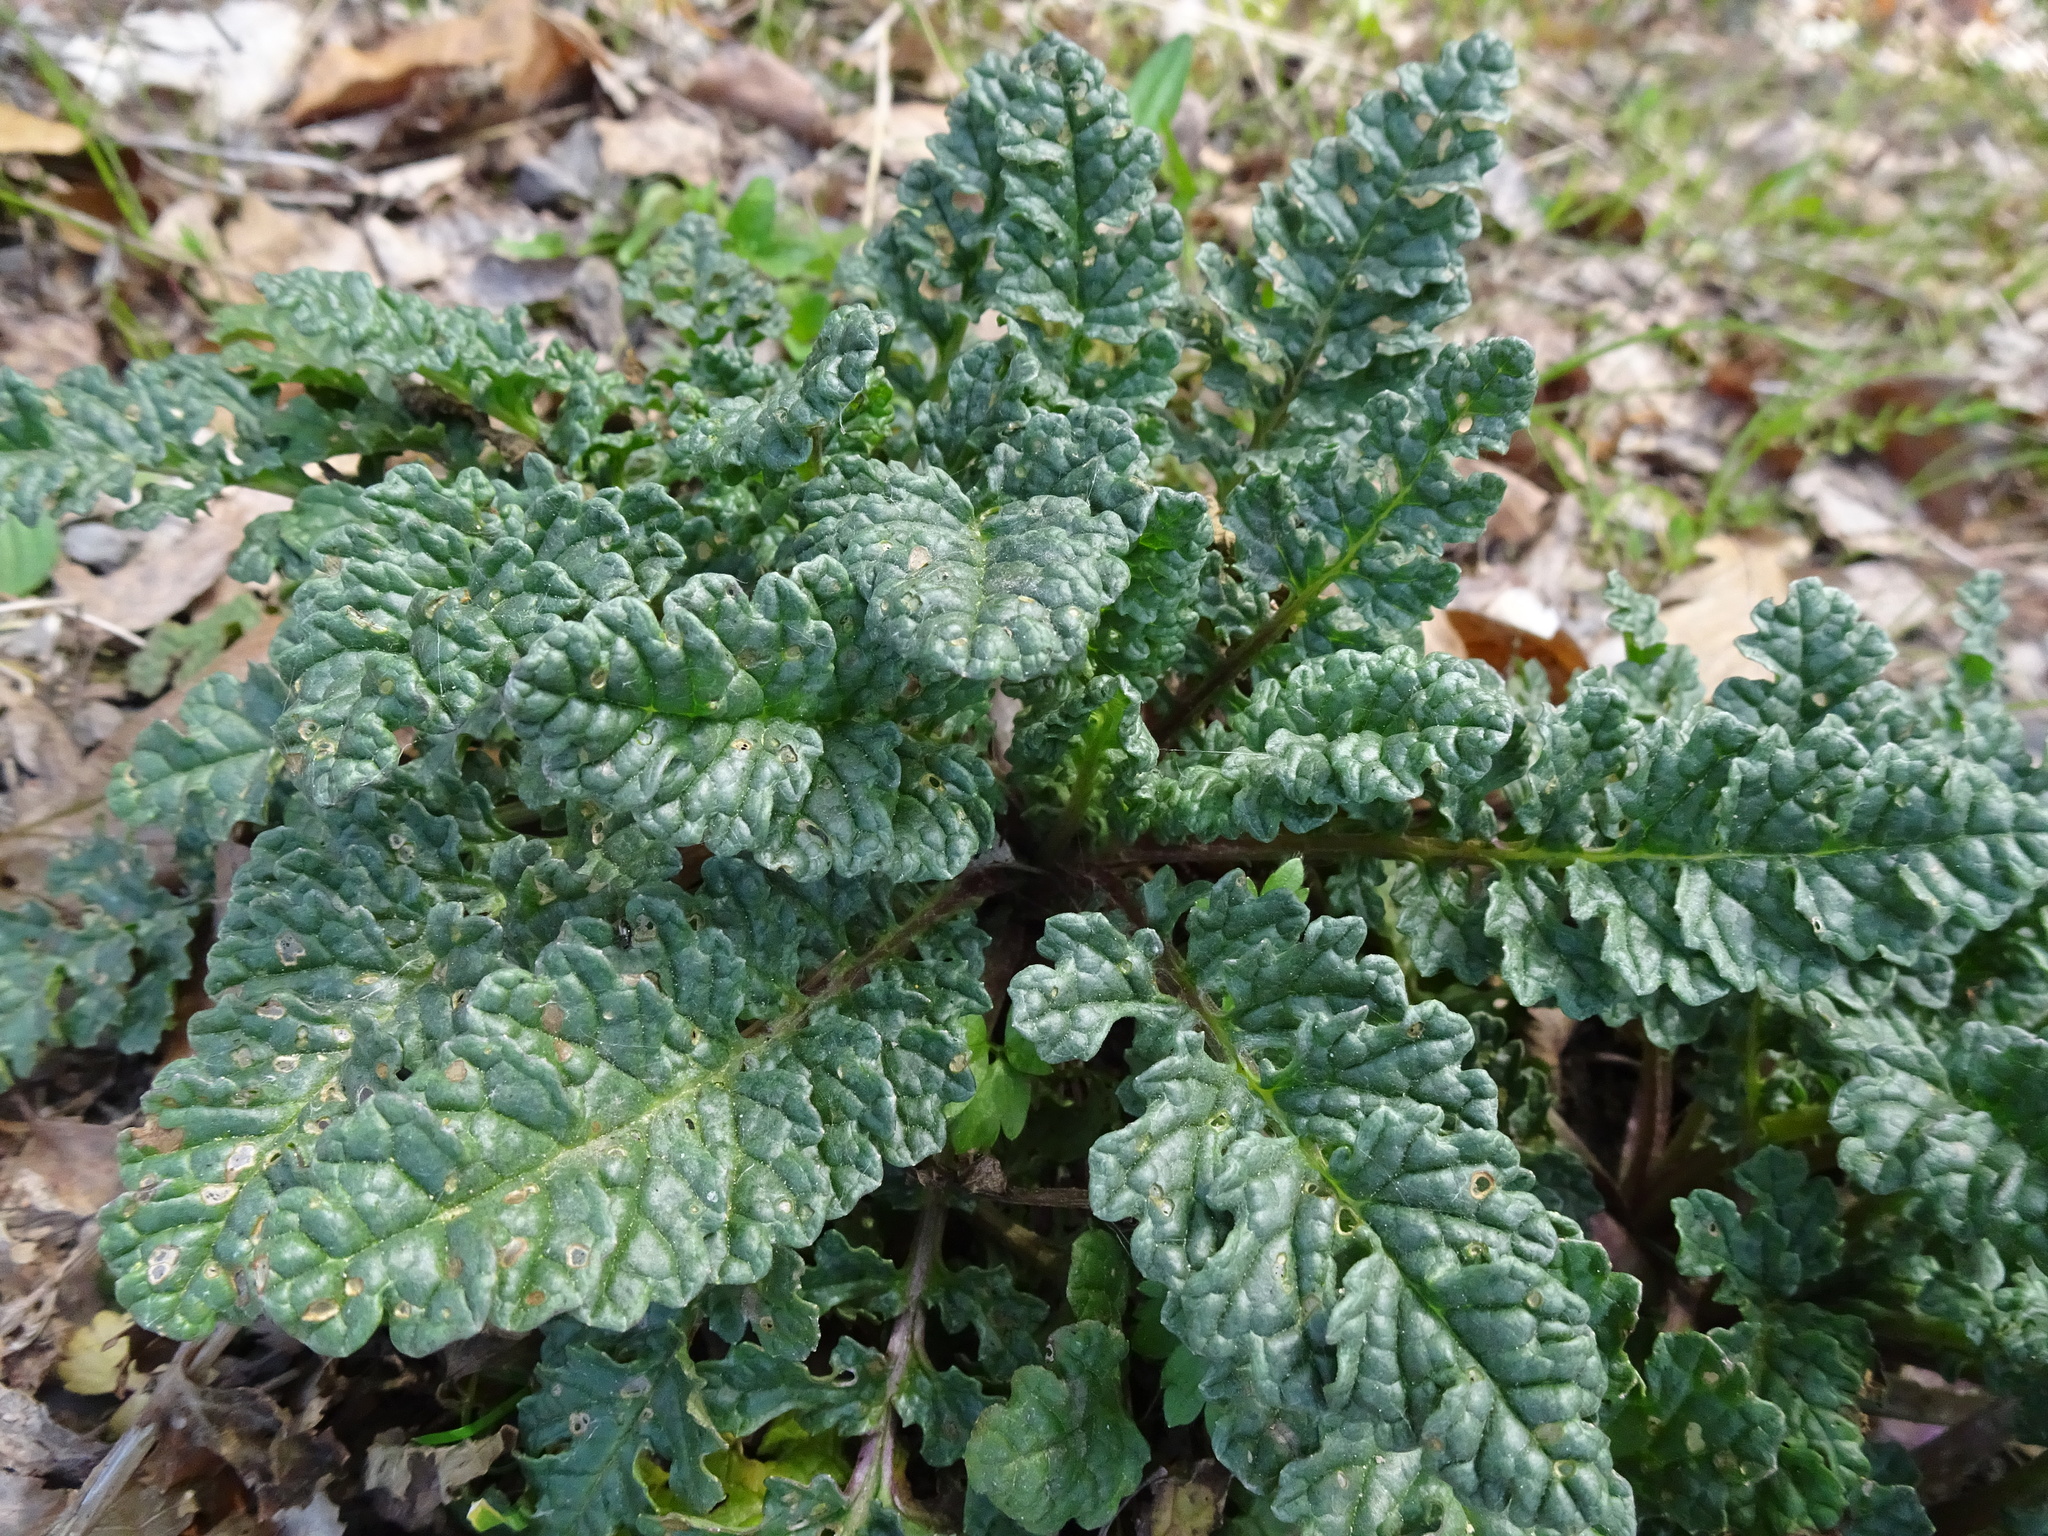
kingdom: Plantae
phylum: Tracheophyta
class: Magnoliopsida
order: Asterales
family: Asteraceae
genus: Jacobaea
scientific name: Jacobaea vulgaris
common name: Stinking willie
